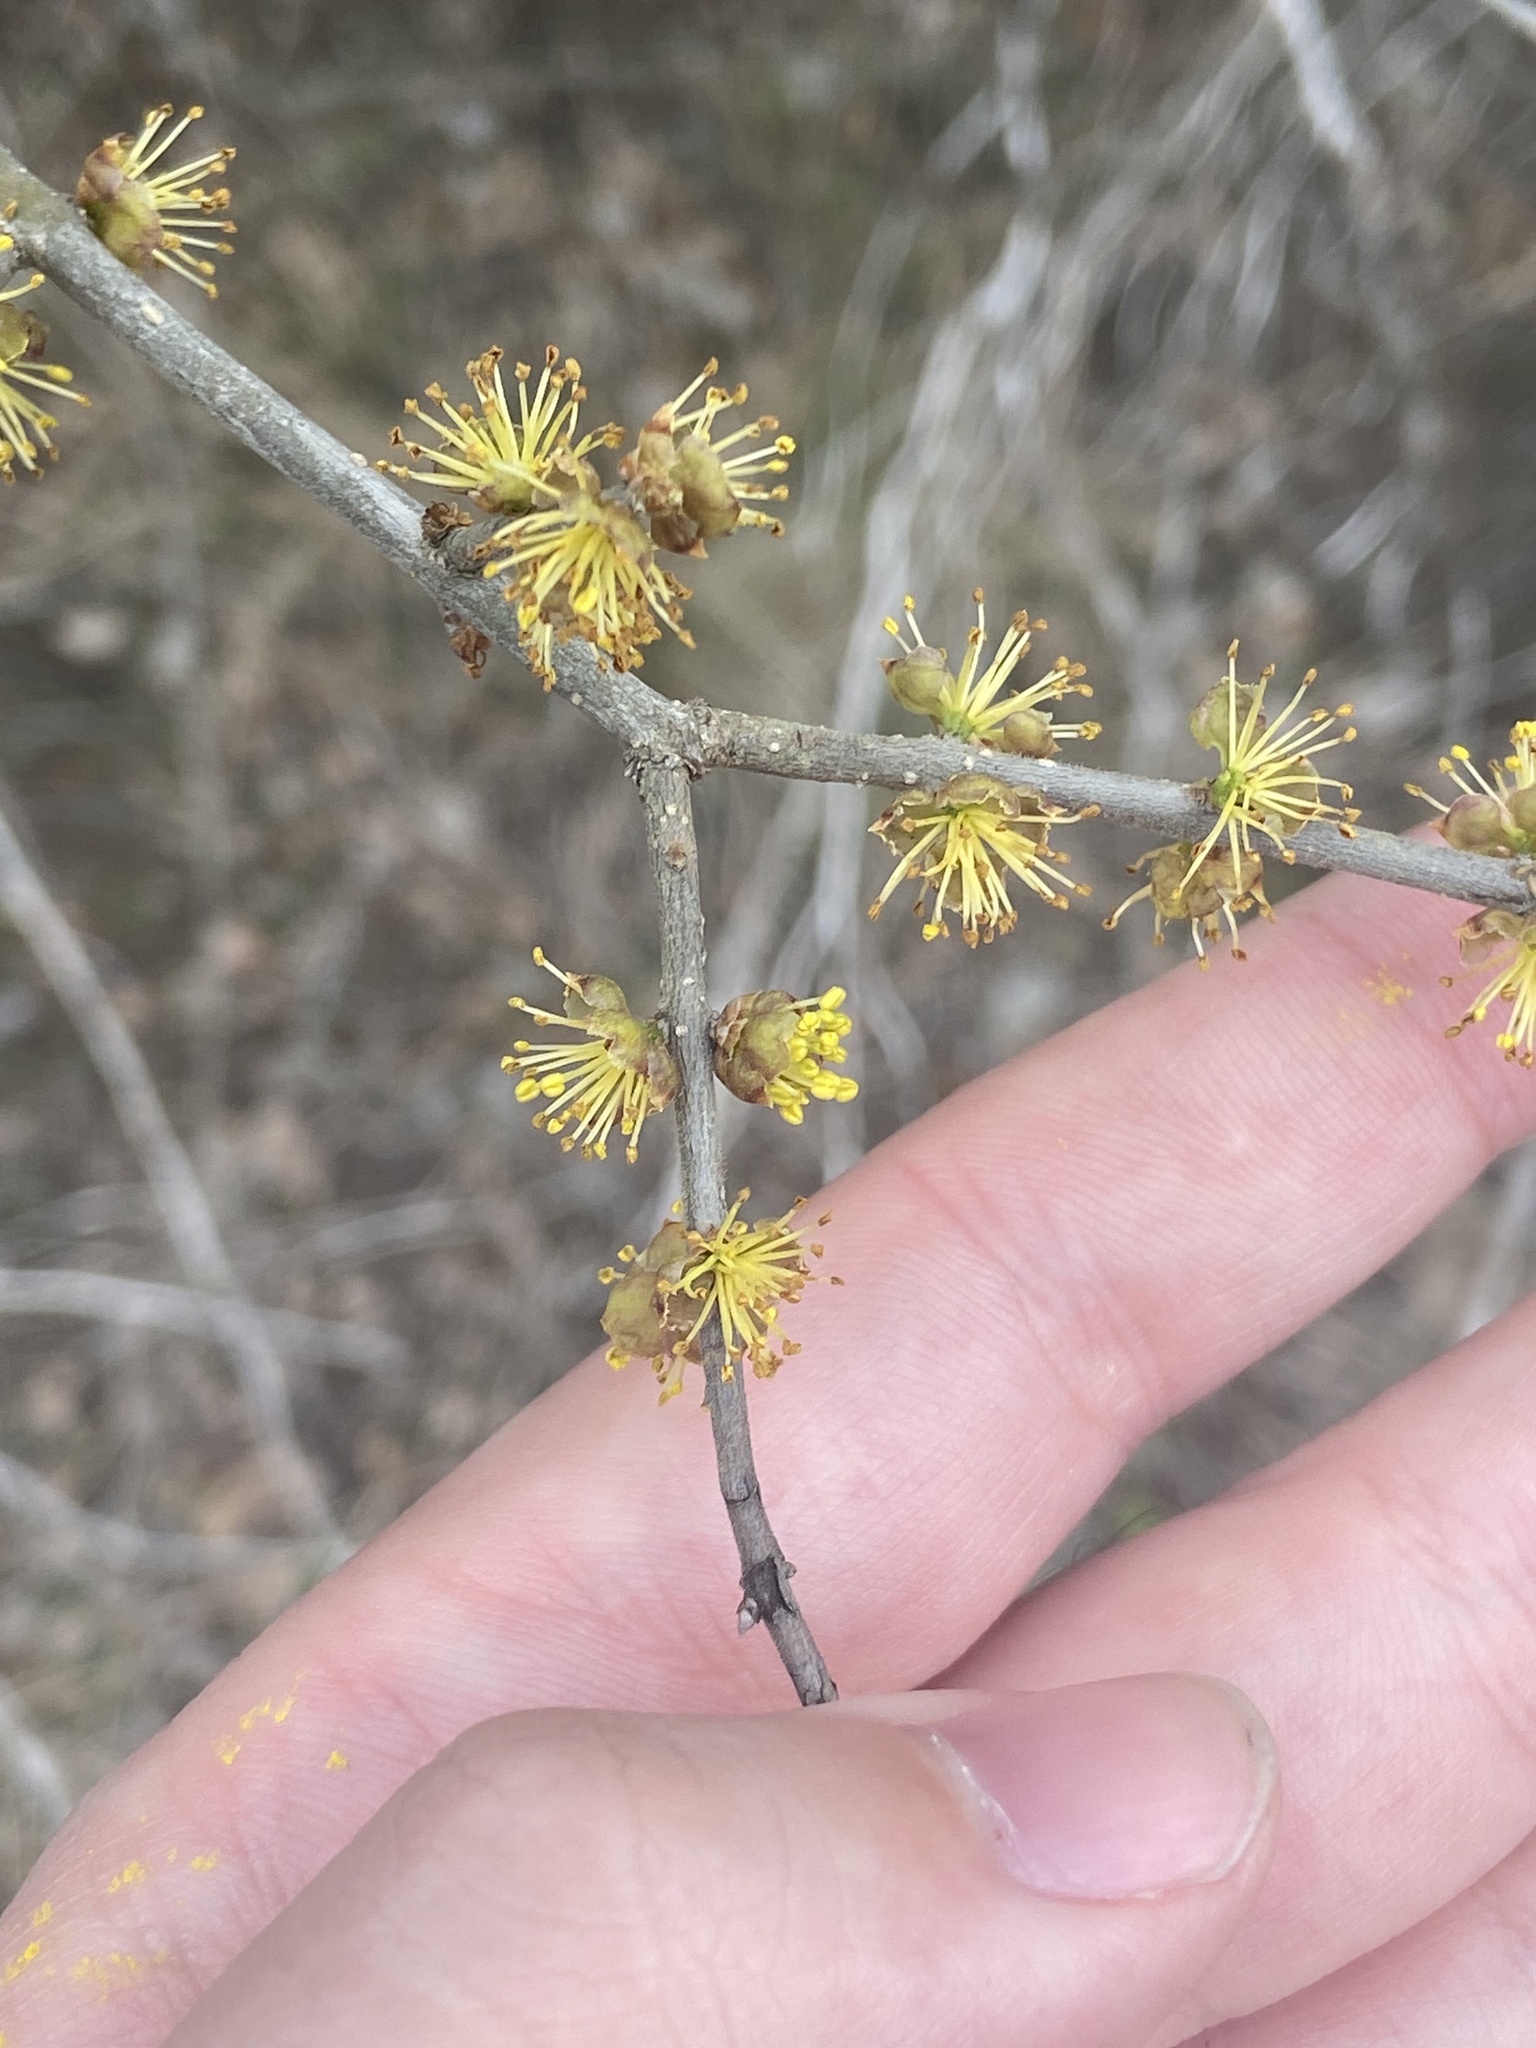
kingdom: Plantae
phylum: Tracheophyta
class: Magnoliopsida
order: Lamiales
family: Oleaceae
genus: Forestiera
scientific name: Forestiera pubescens
